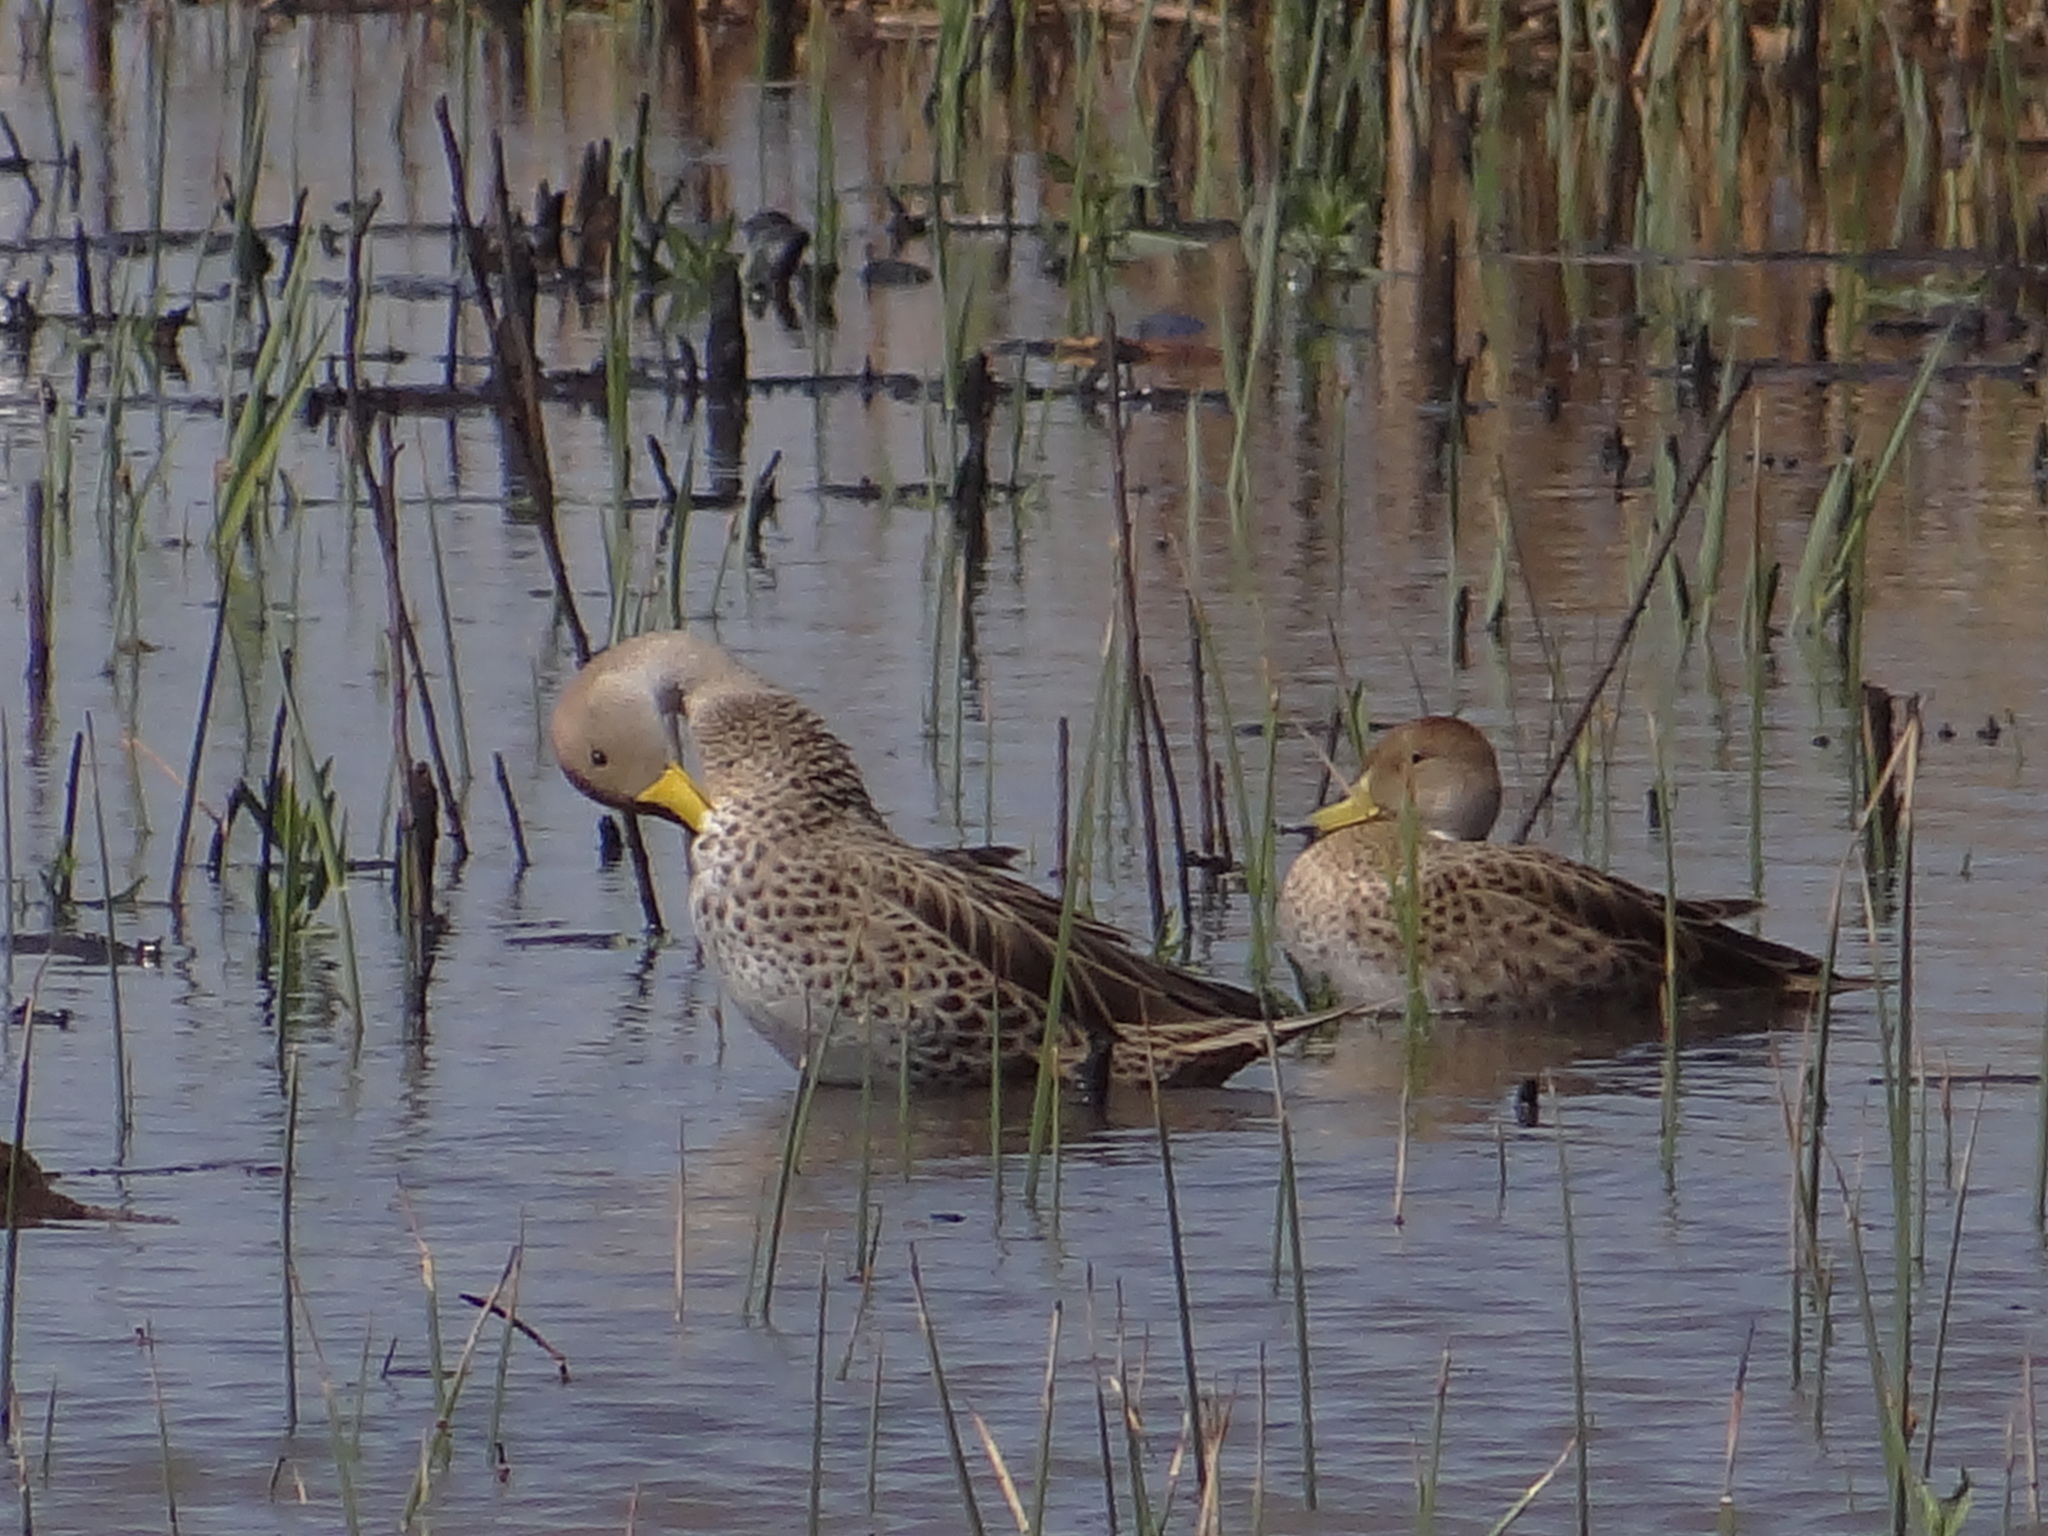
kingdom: Animalia
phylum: Chordata
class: Aves
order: Anseriformes
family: Anatidae
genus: Anas
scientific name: Anas georgica
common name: Yellow-billed pintail
